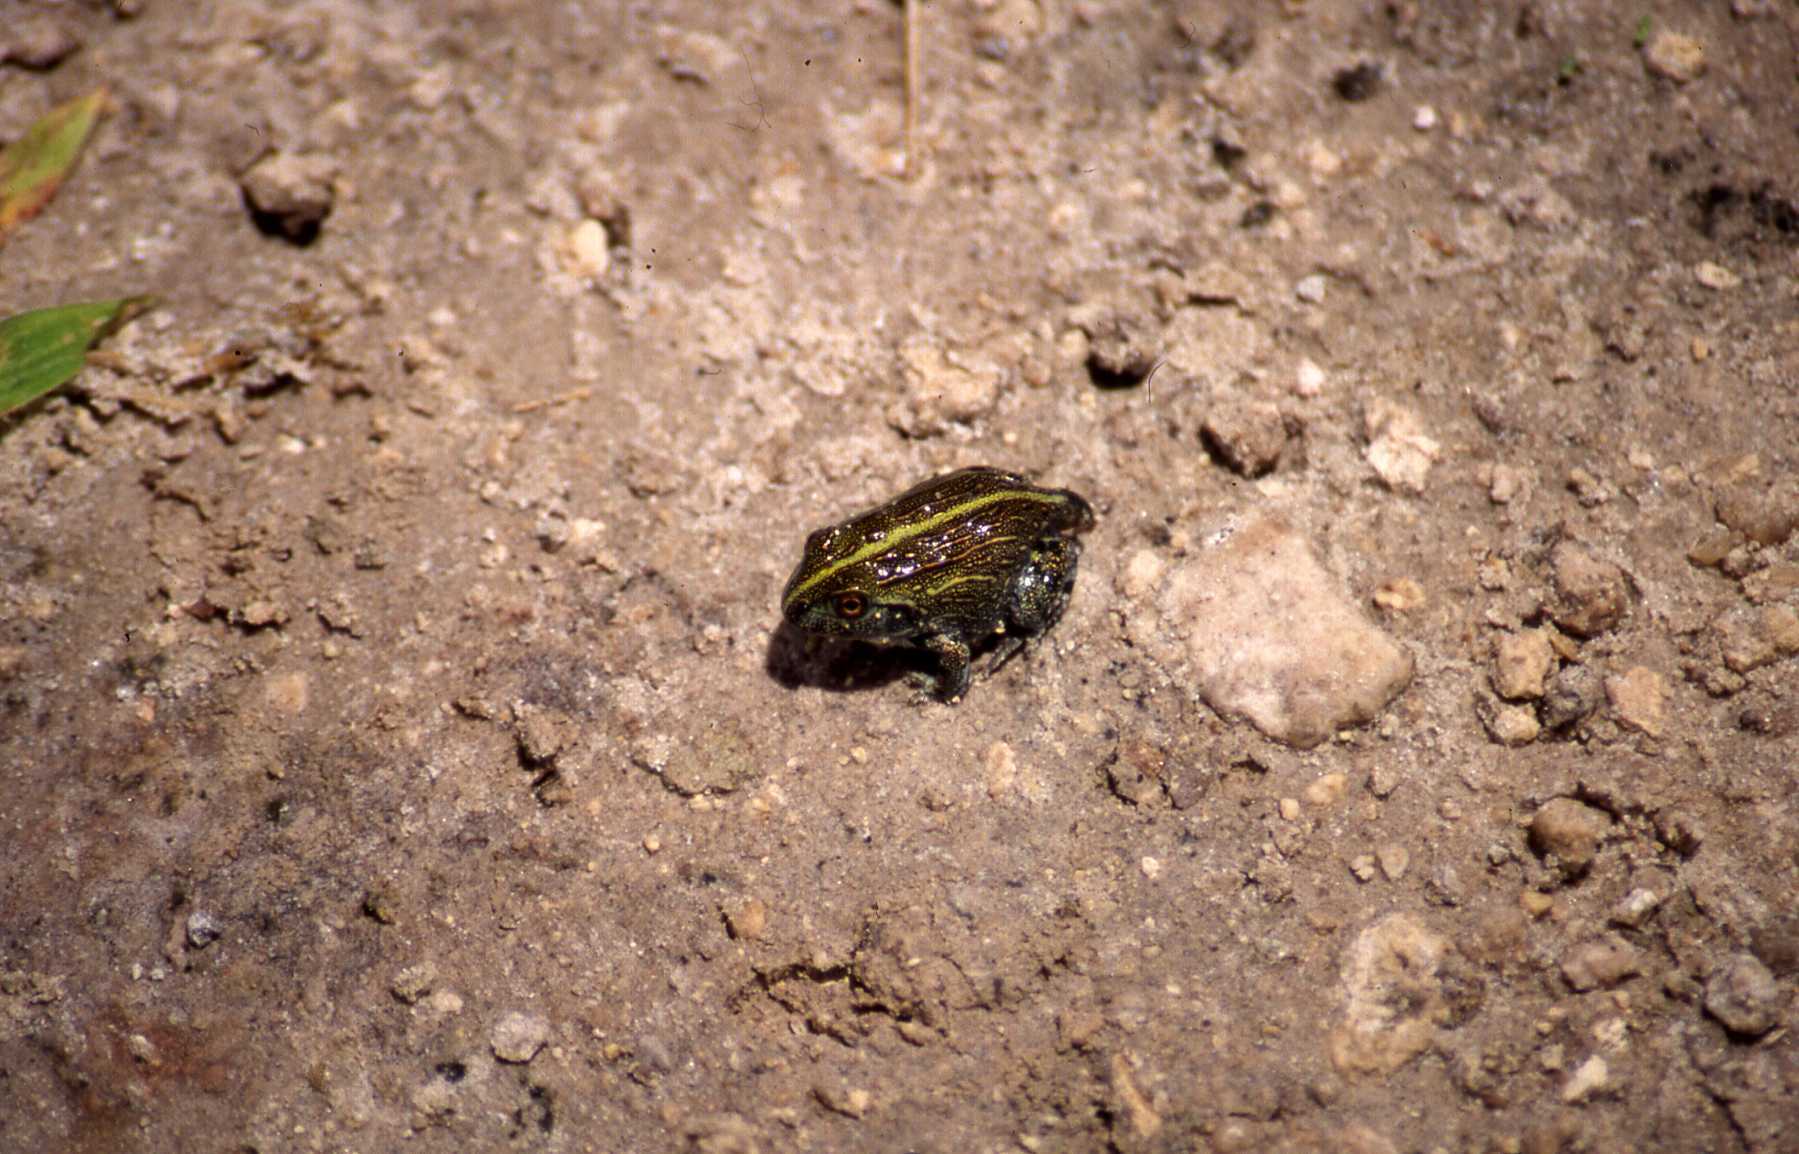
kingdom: Animalia
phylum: Chordata
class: Amphibia
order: Anura
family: Pyxicephalidae
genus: Pyxicephalus
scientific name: Pyxicephalus edulis
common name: Peter's bullfrog
